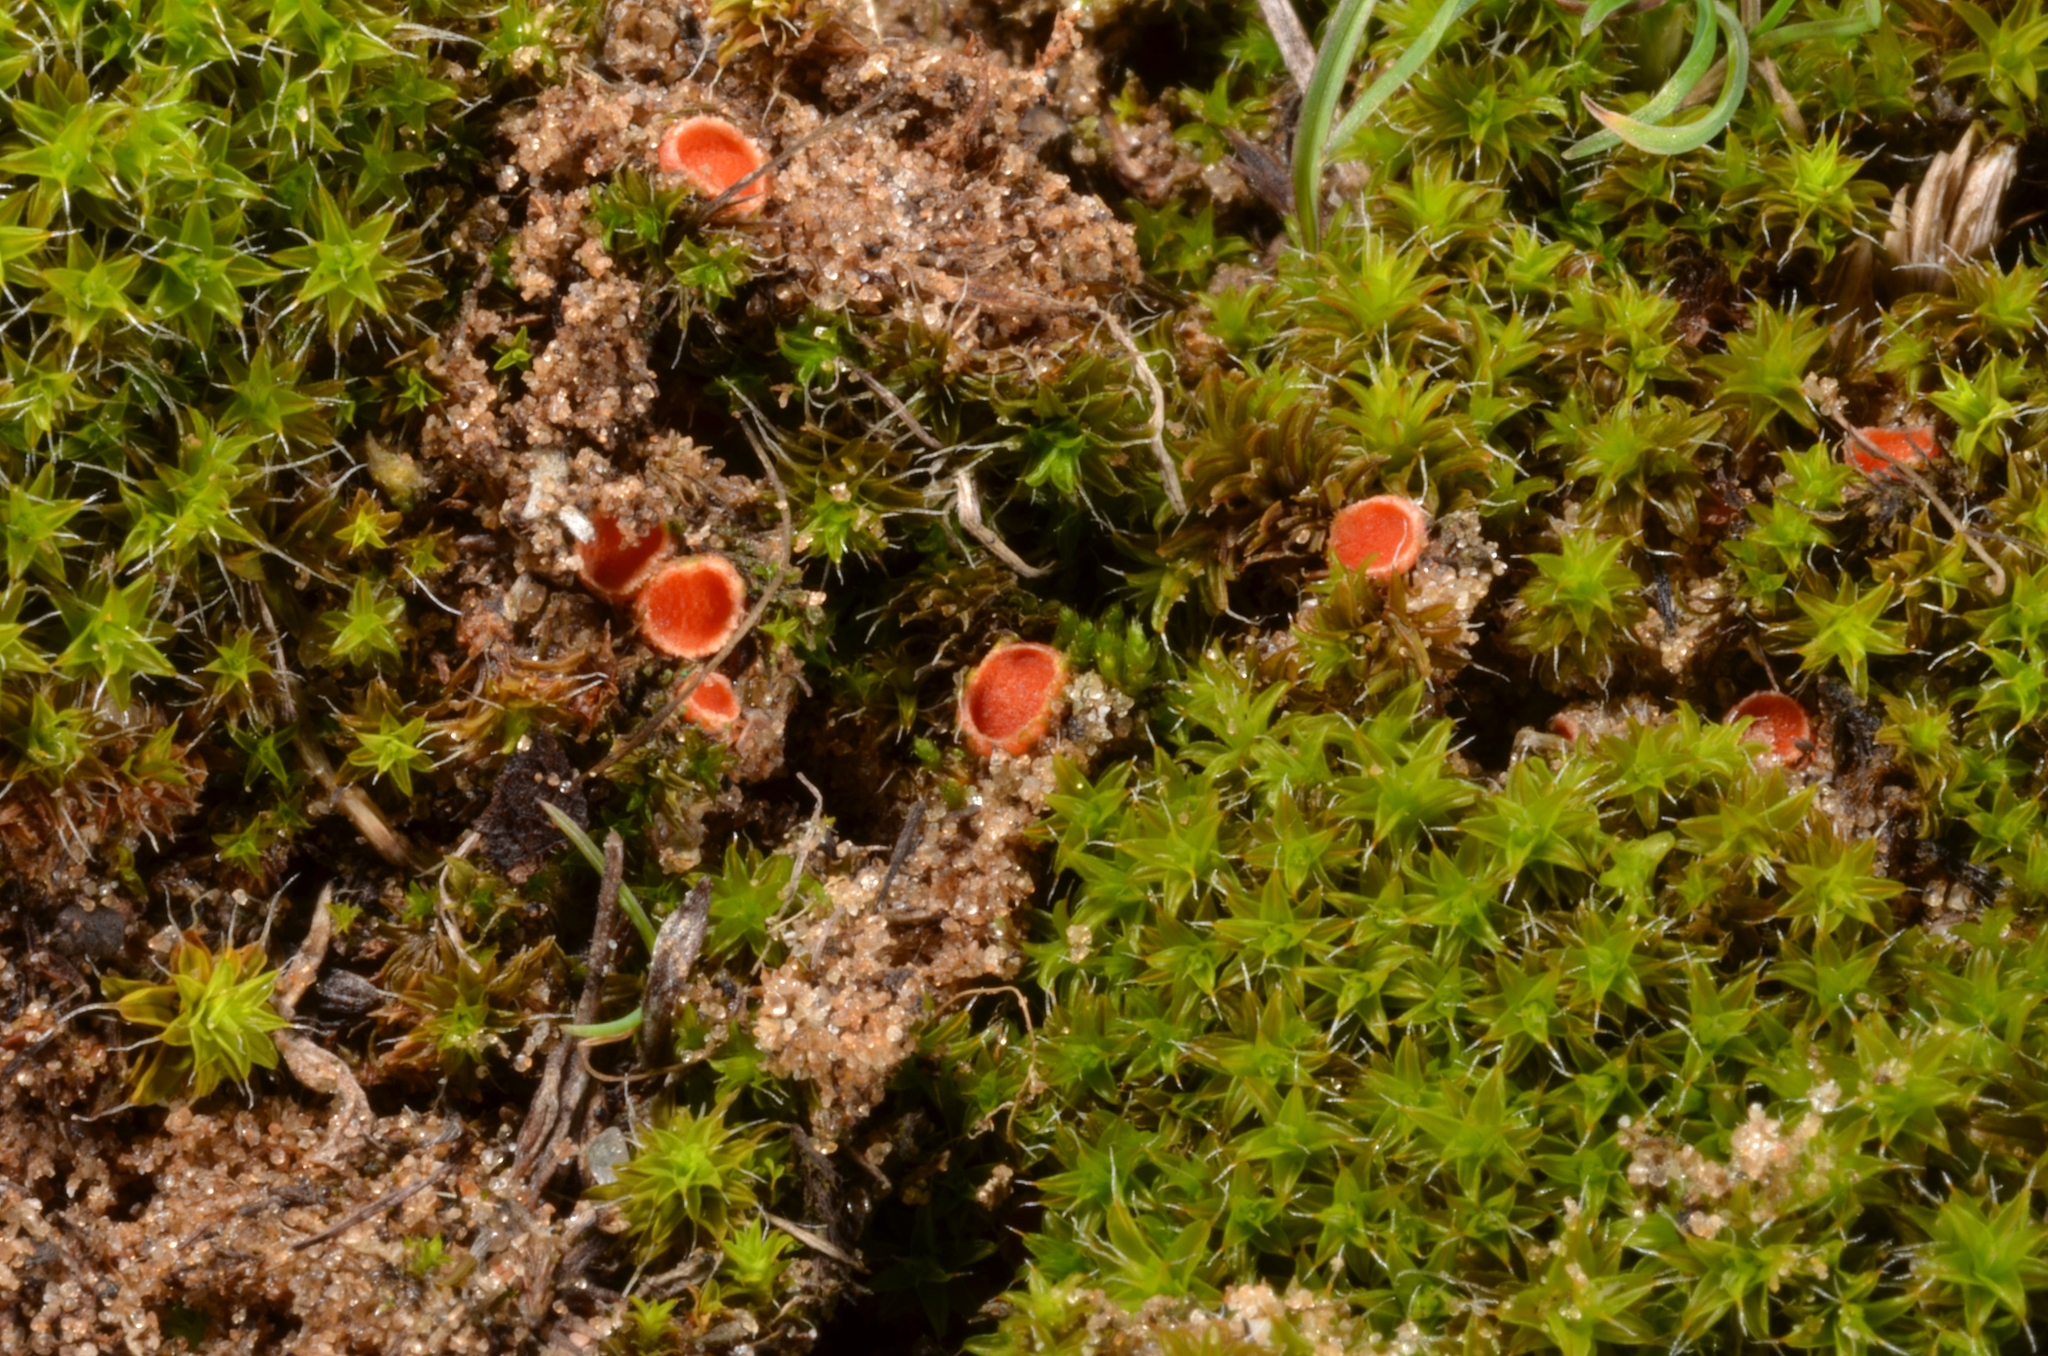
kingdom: Fungi
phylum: Ascomycota
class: Pezizomycetes
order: Pezizales
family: Pyronemataceae
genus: Lamprospora
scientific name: Lamprospora retispora
